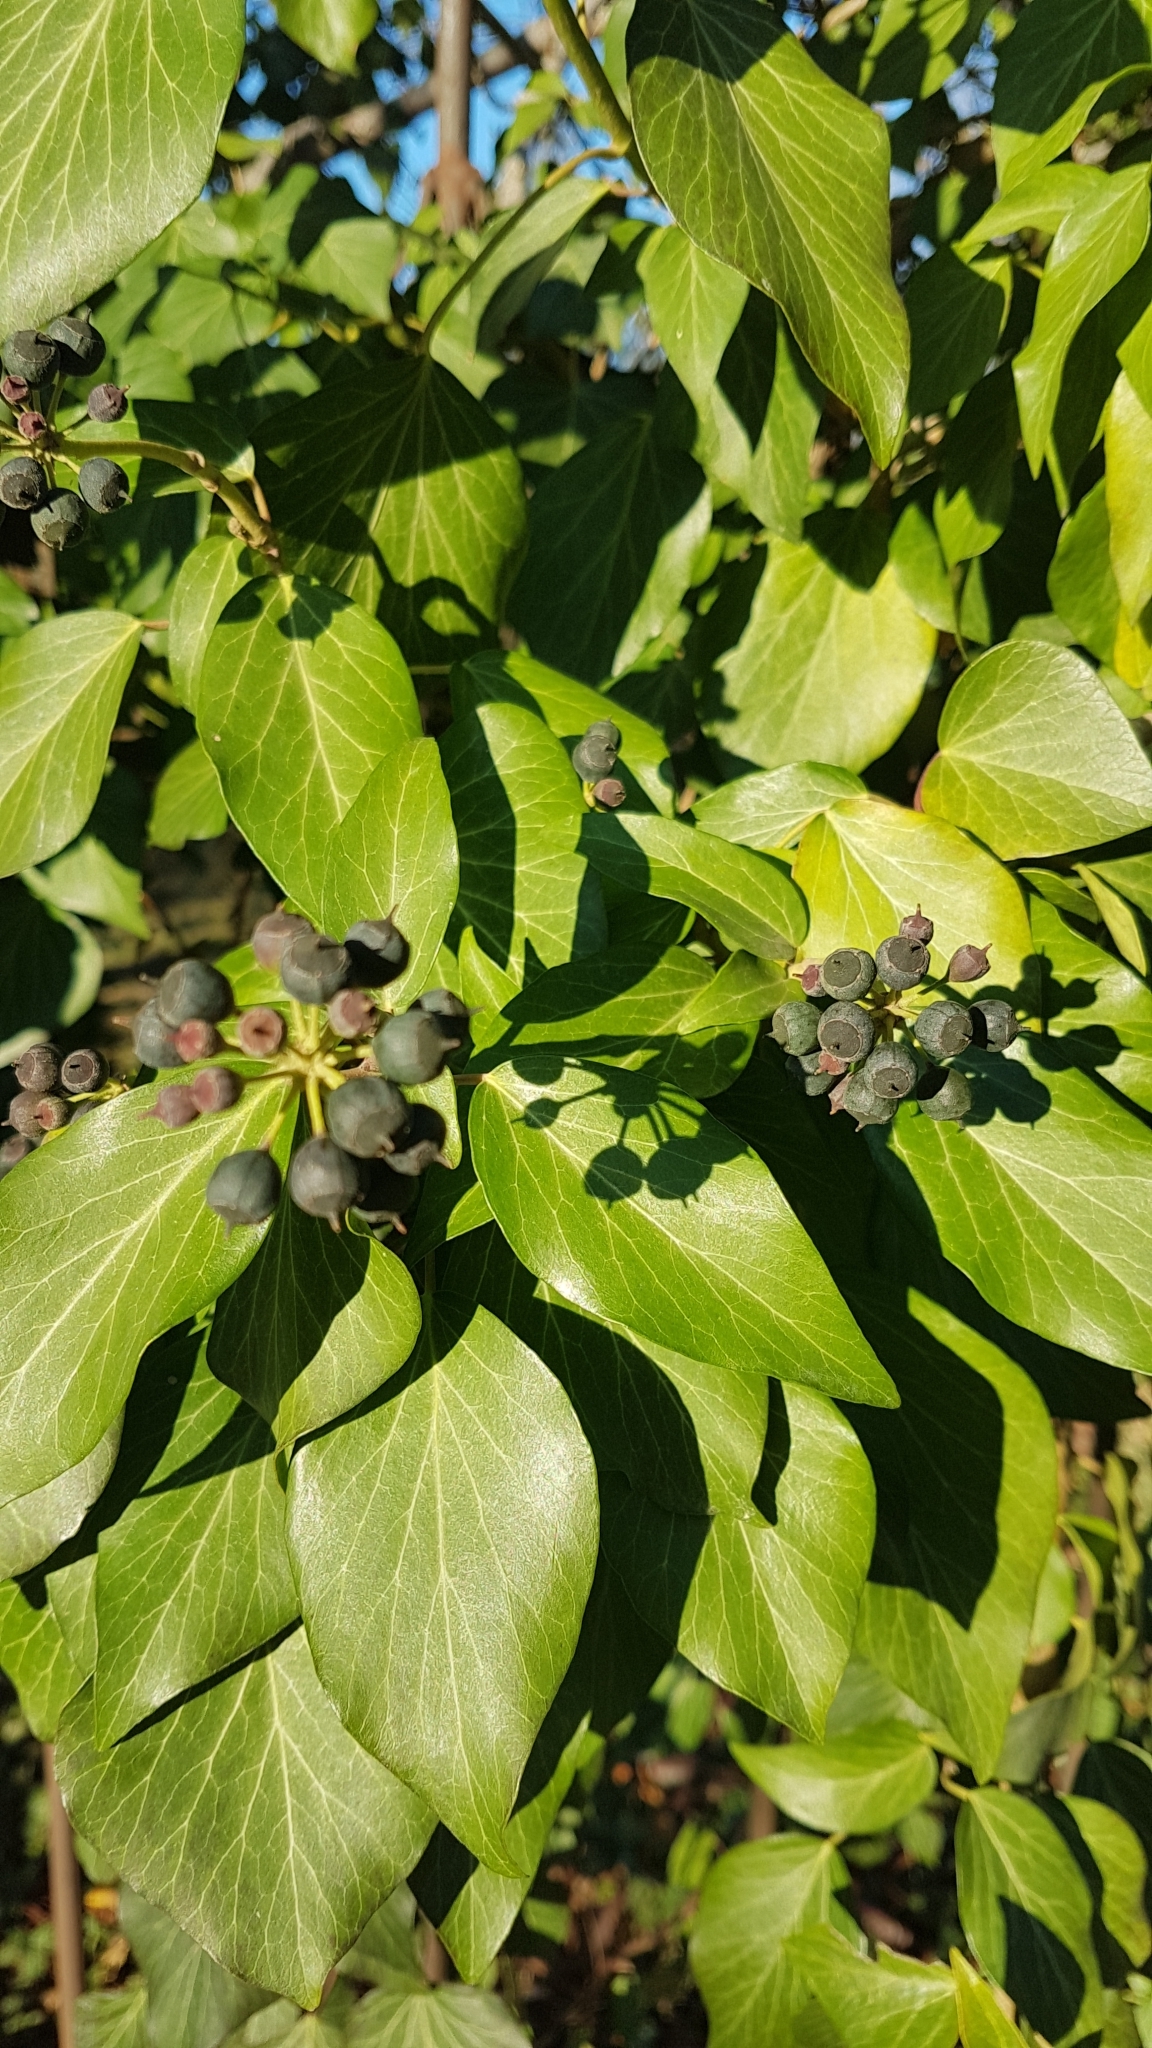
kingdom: Plantae
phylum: Tracheophyta
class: Magnoliopsida
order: Apiales
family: Araliaceae
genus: Hedera
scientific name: Hedera helix
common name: Ivy
